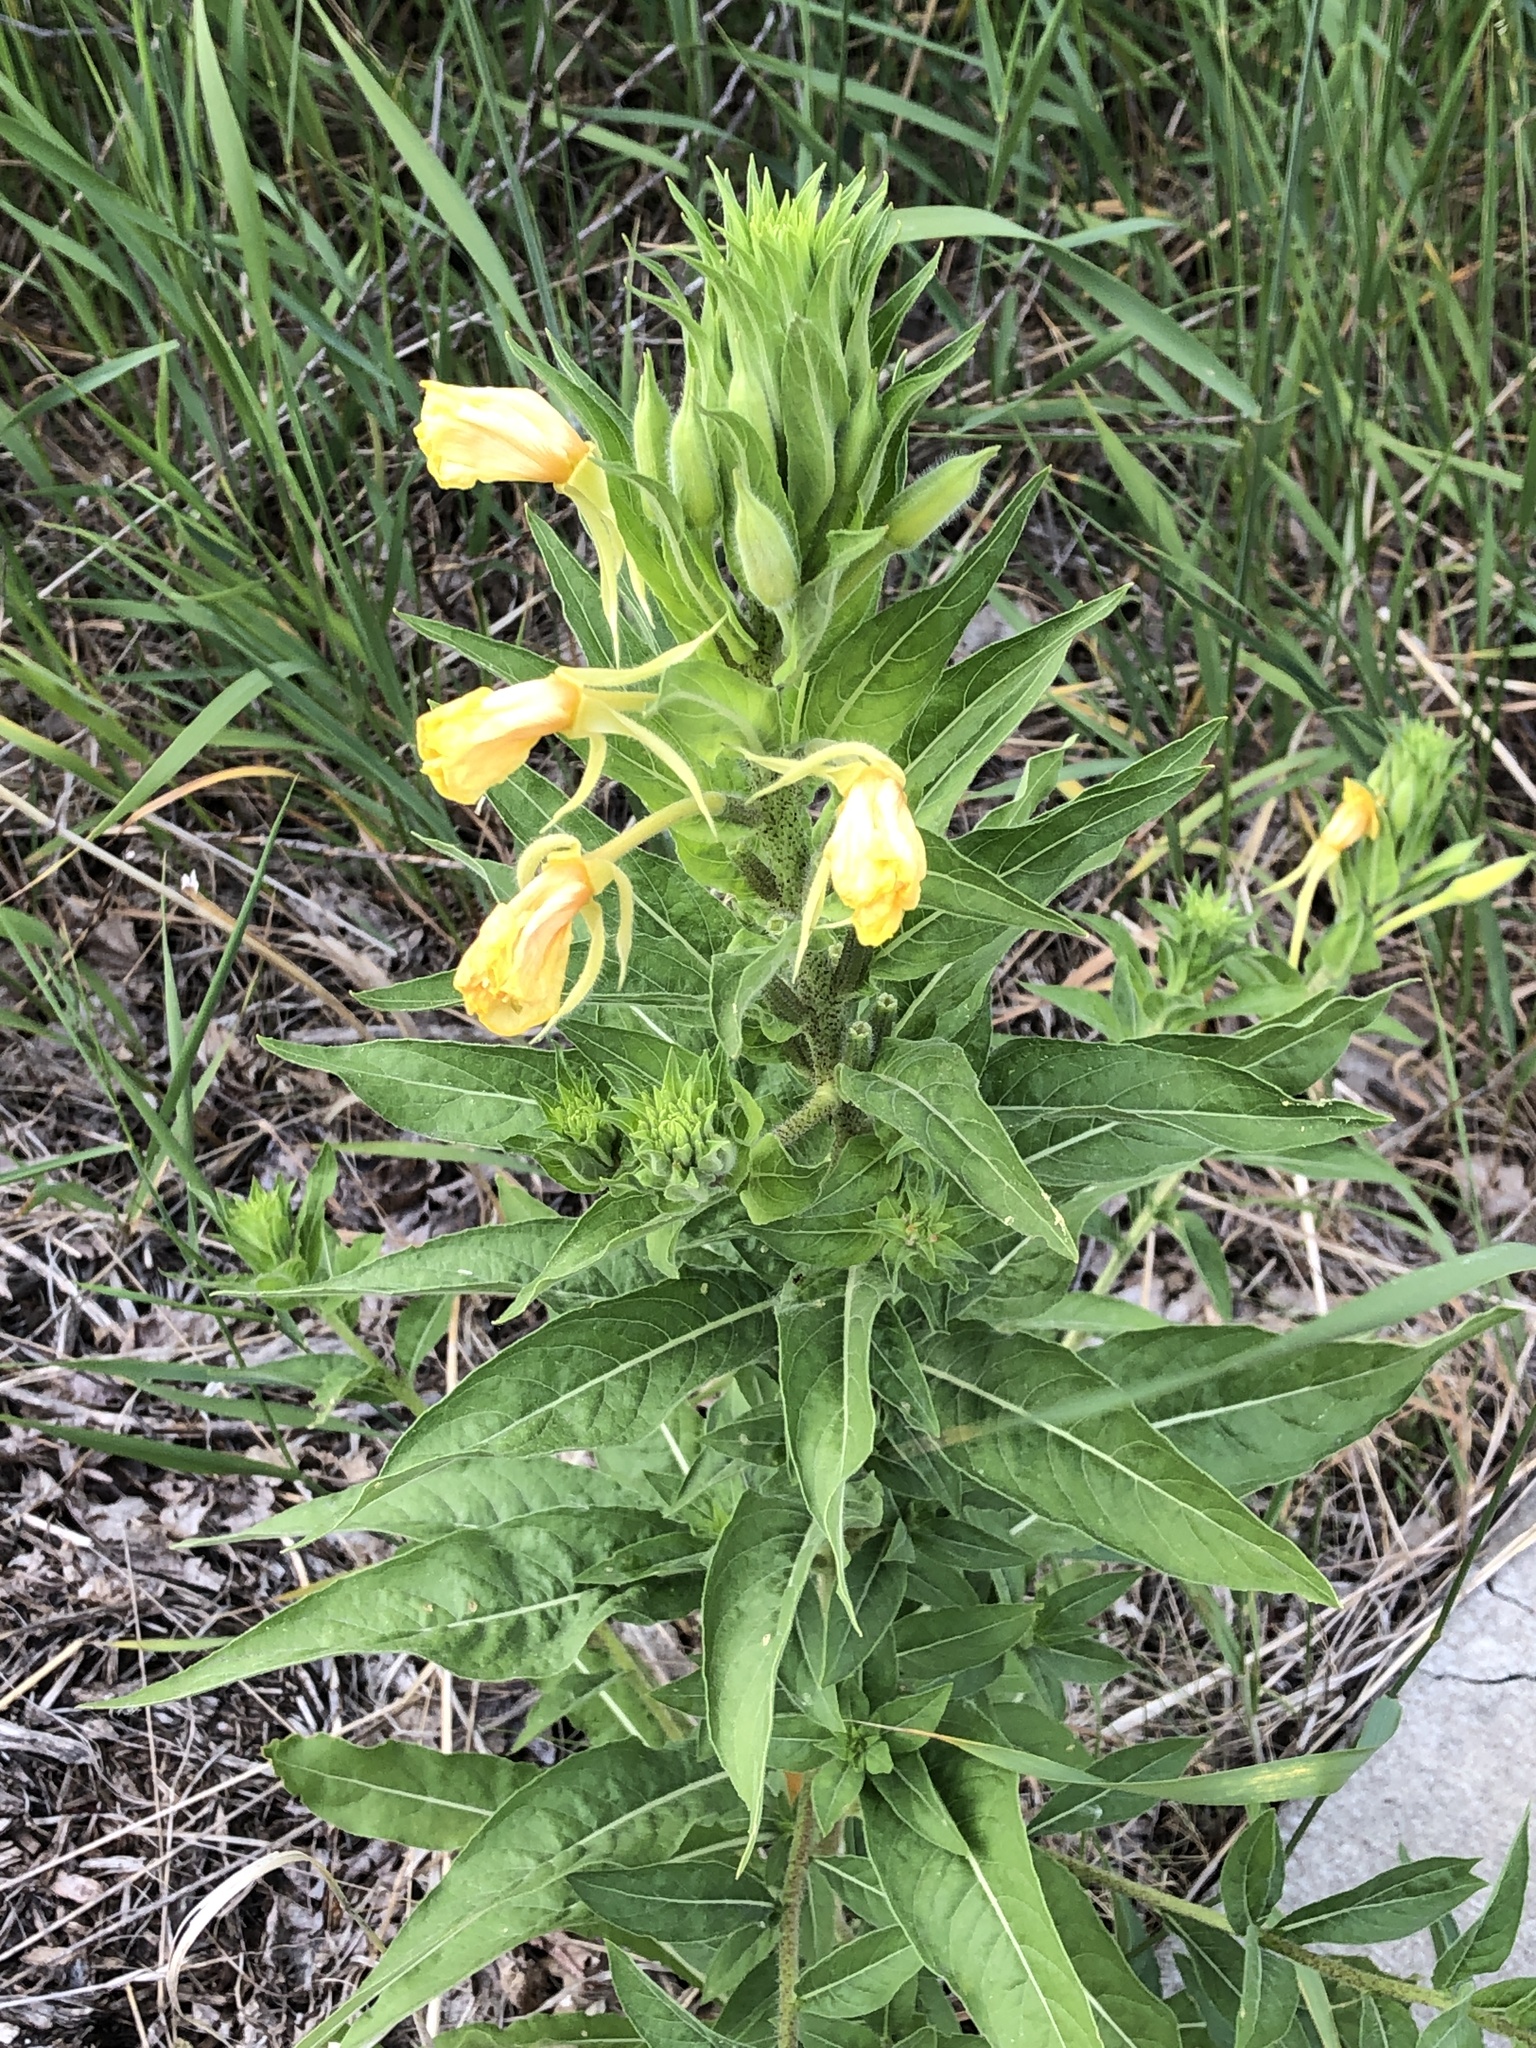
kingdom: Plantae
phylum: Tracheophyta
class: Magnoliopsida
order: Myrtales
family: Onagraceae
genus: Oenothera
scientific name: Oenothera biennis
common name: Common evening-primrose
